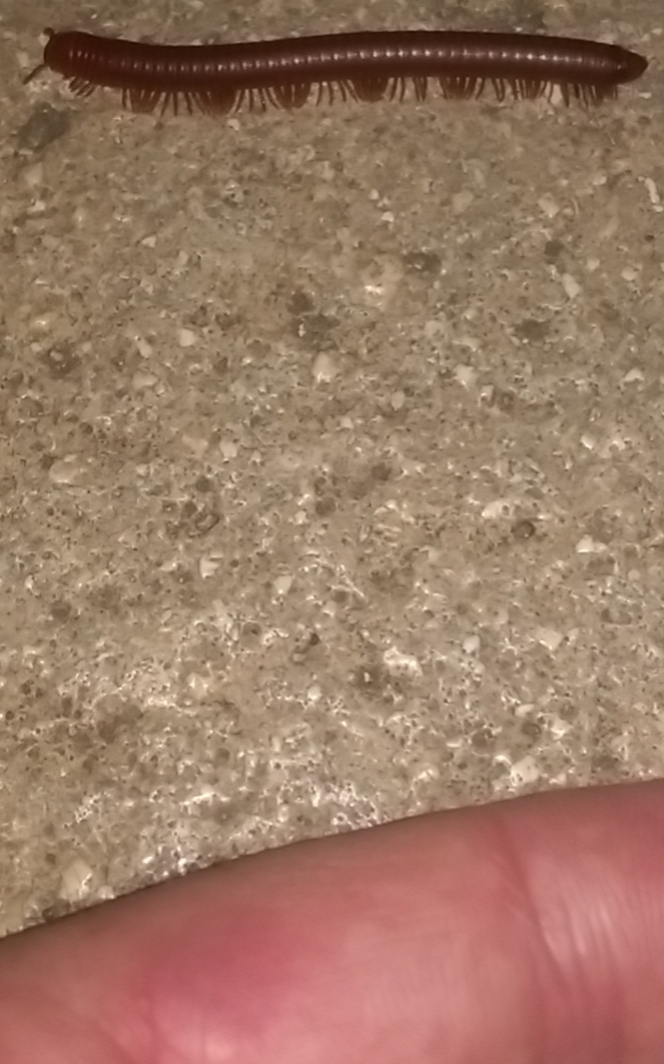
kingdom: Animalia
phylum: Arthropoda
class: Diplopoda
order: Spirobolida
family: Pachybolidae
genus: Trigoniulus
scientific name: Trigoniulus corallinus
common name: Millipede
